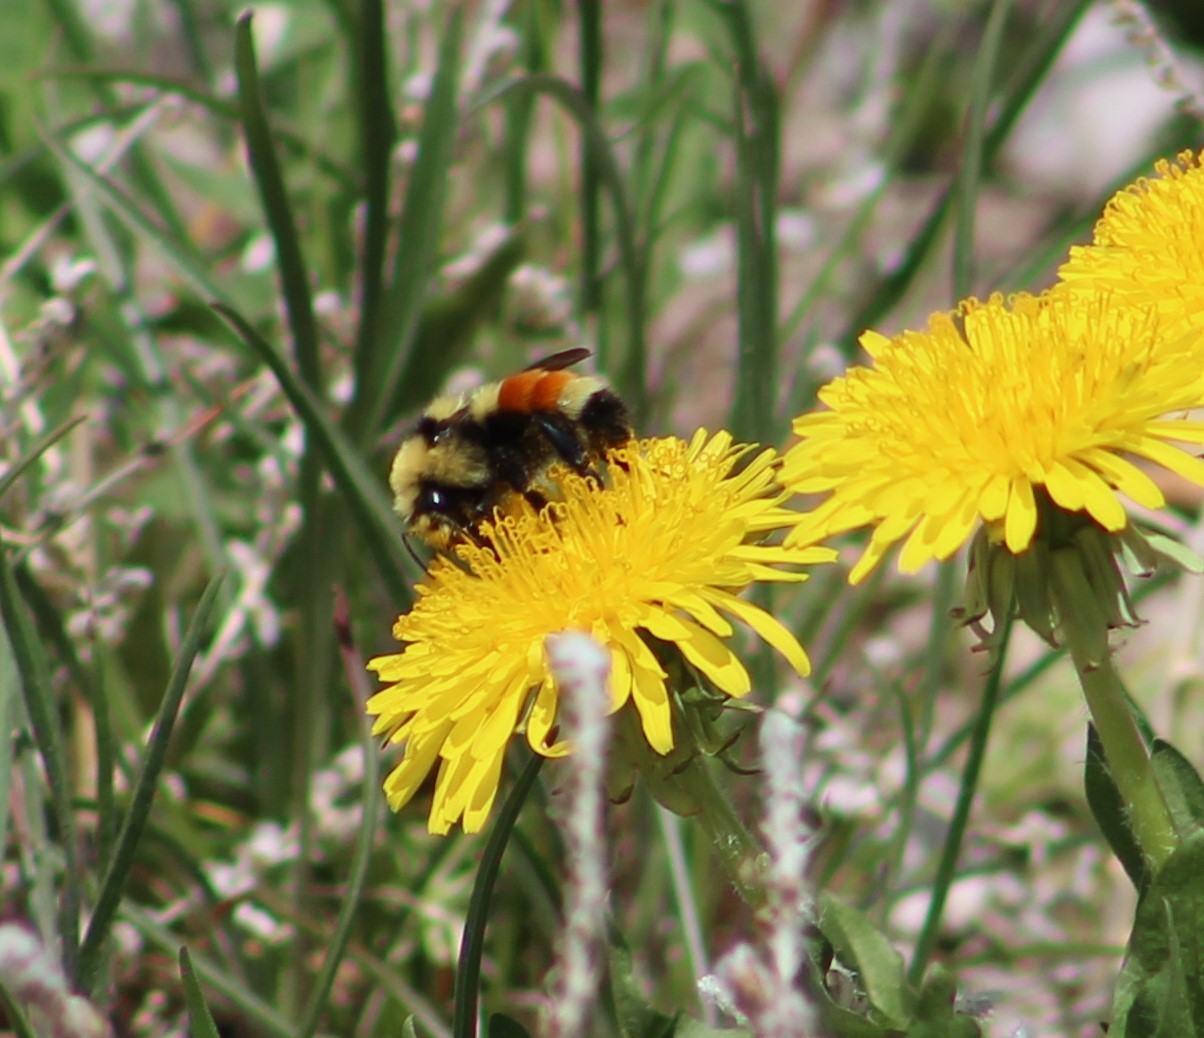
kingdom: Animalia
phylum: Arthropoda
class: Insecta
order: Hymenoptera
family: Apidae
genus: Bombus
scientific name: Bombus huntii
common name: Hunt bumble bee
